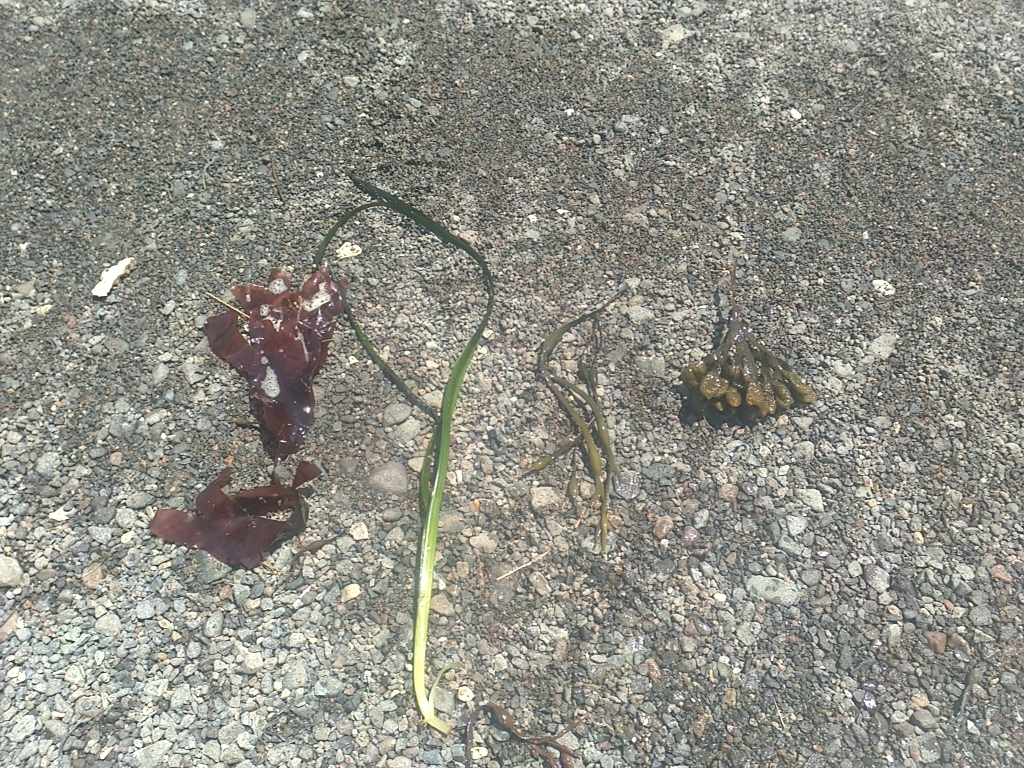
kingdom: Plantae
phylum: Tracheophyta
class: Liliopsida
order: Alismatales
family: Zosteraceae
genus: Zostera
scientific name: Zostera marina
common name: Eelgrass
